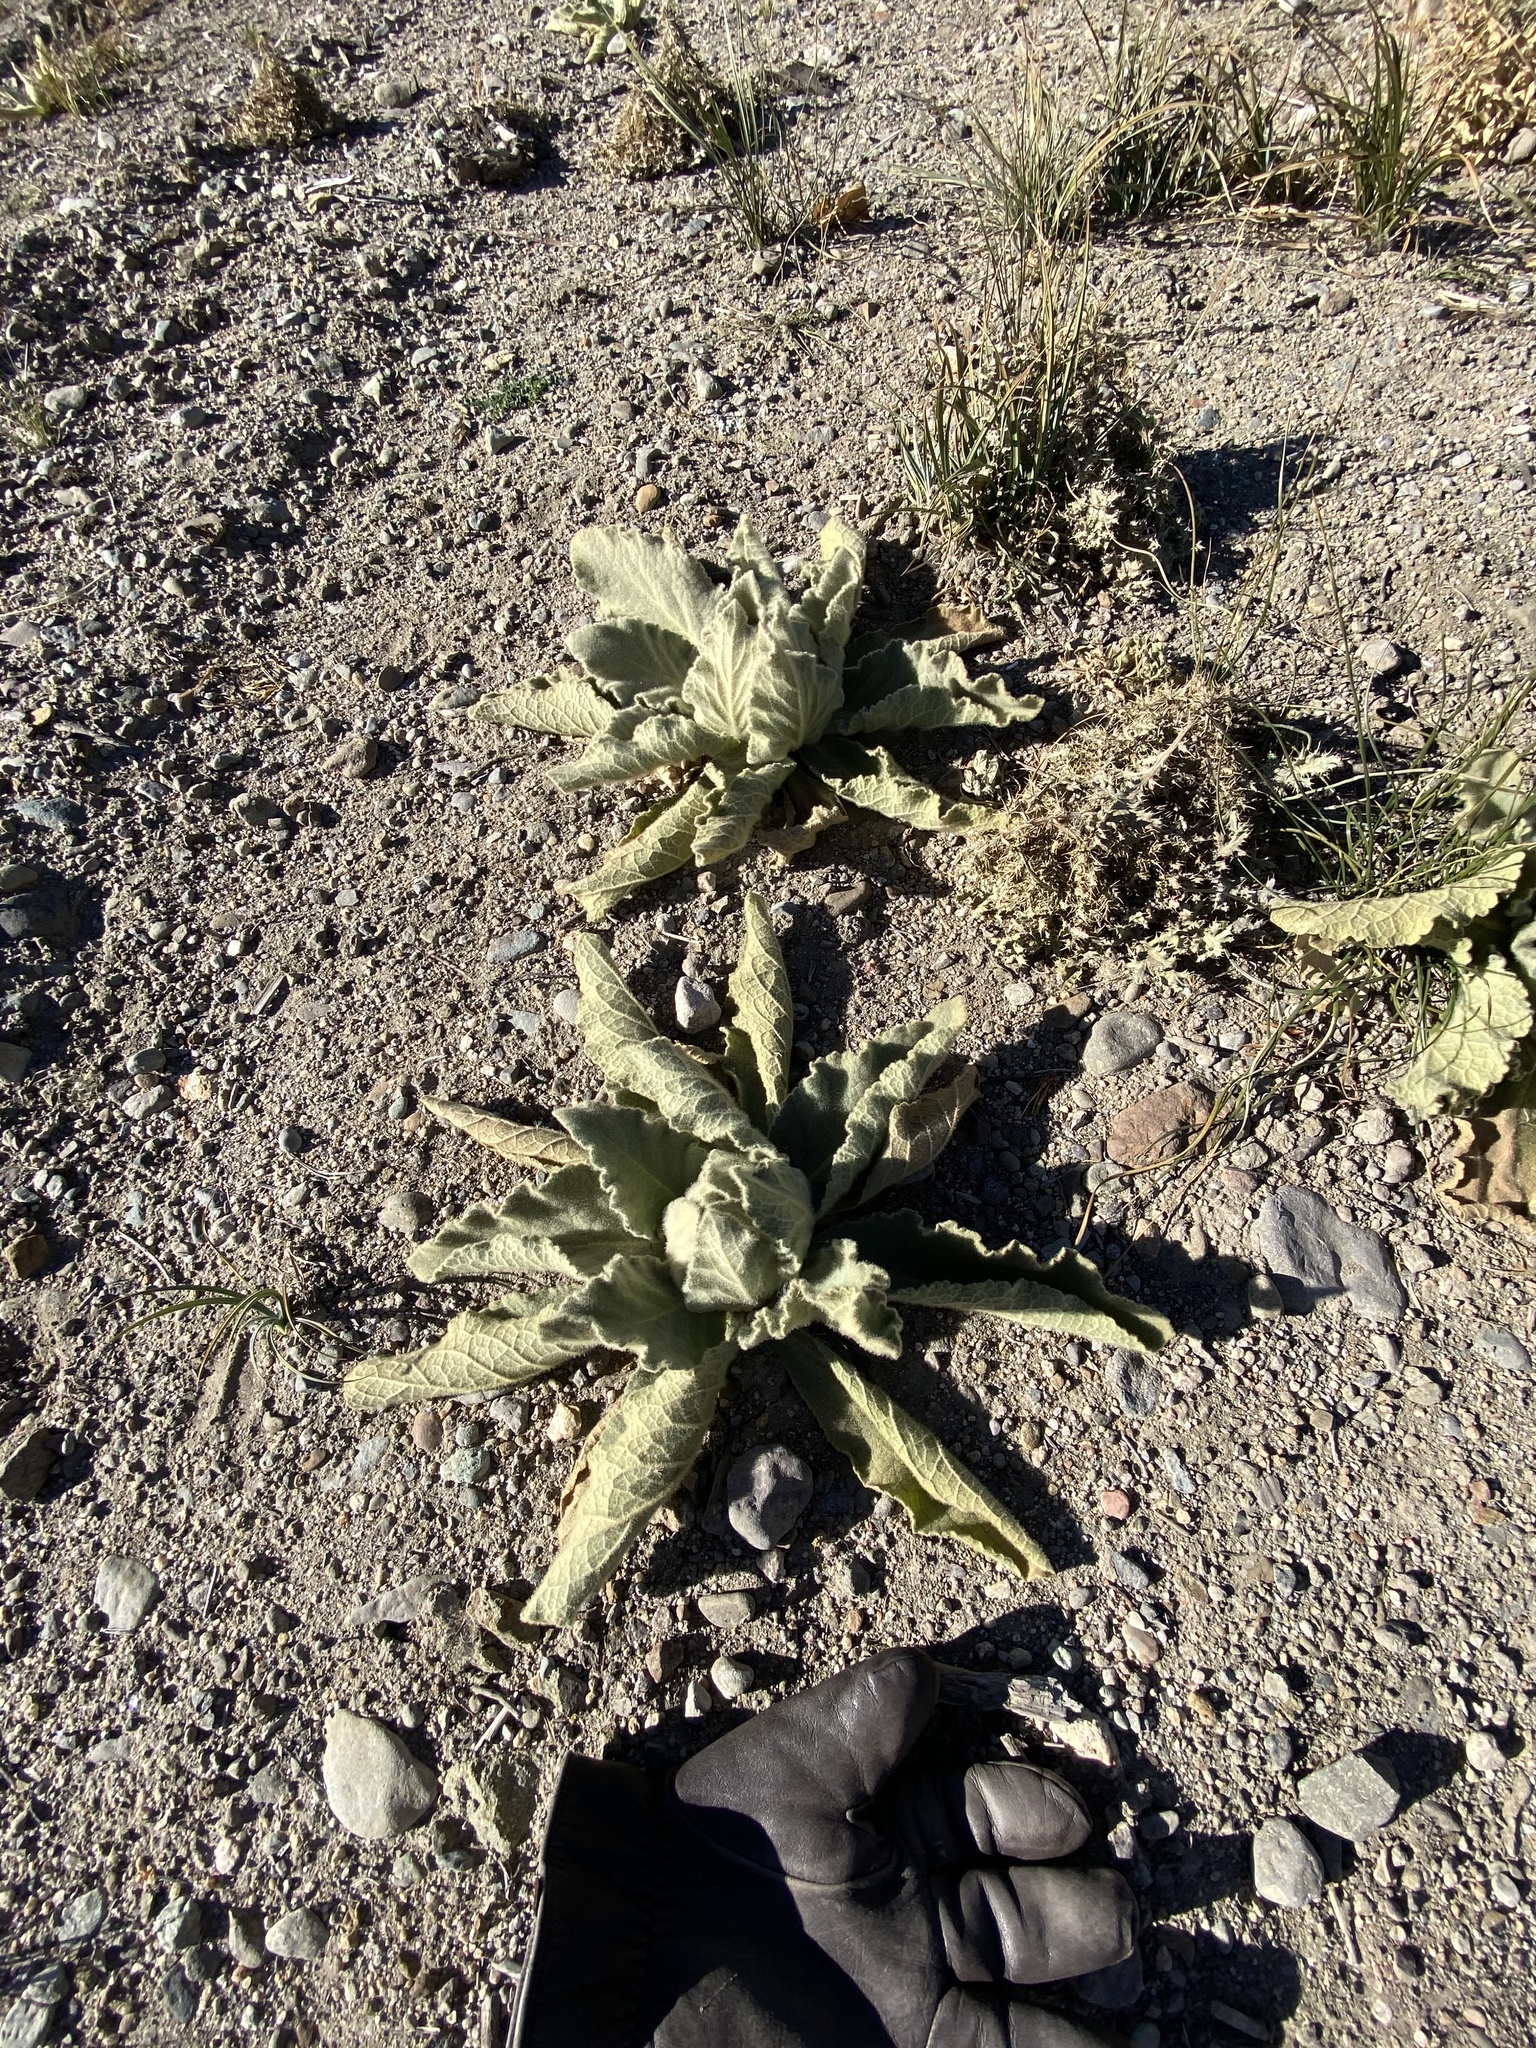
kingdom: Plantae
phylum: Tracheophyta
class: Magnoliopsida
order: Lamiales
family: Scrophulariaceae
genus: Verbascum
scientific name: Verbascum thapsus
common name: Common mullein
